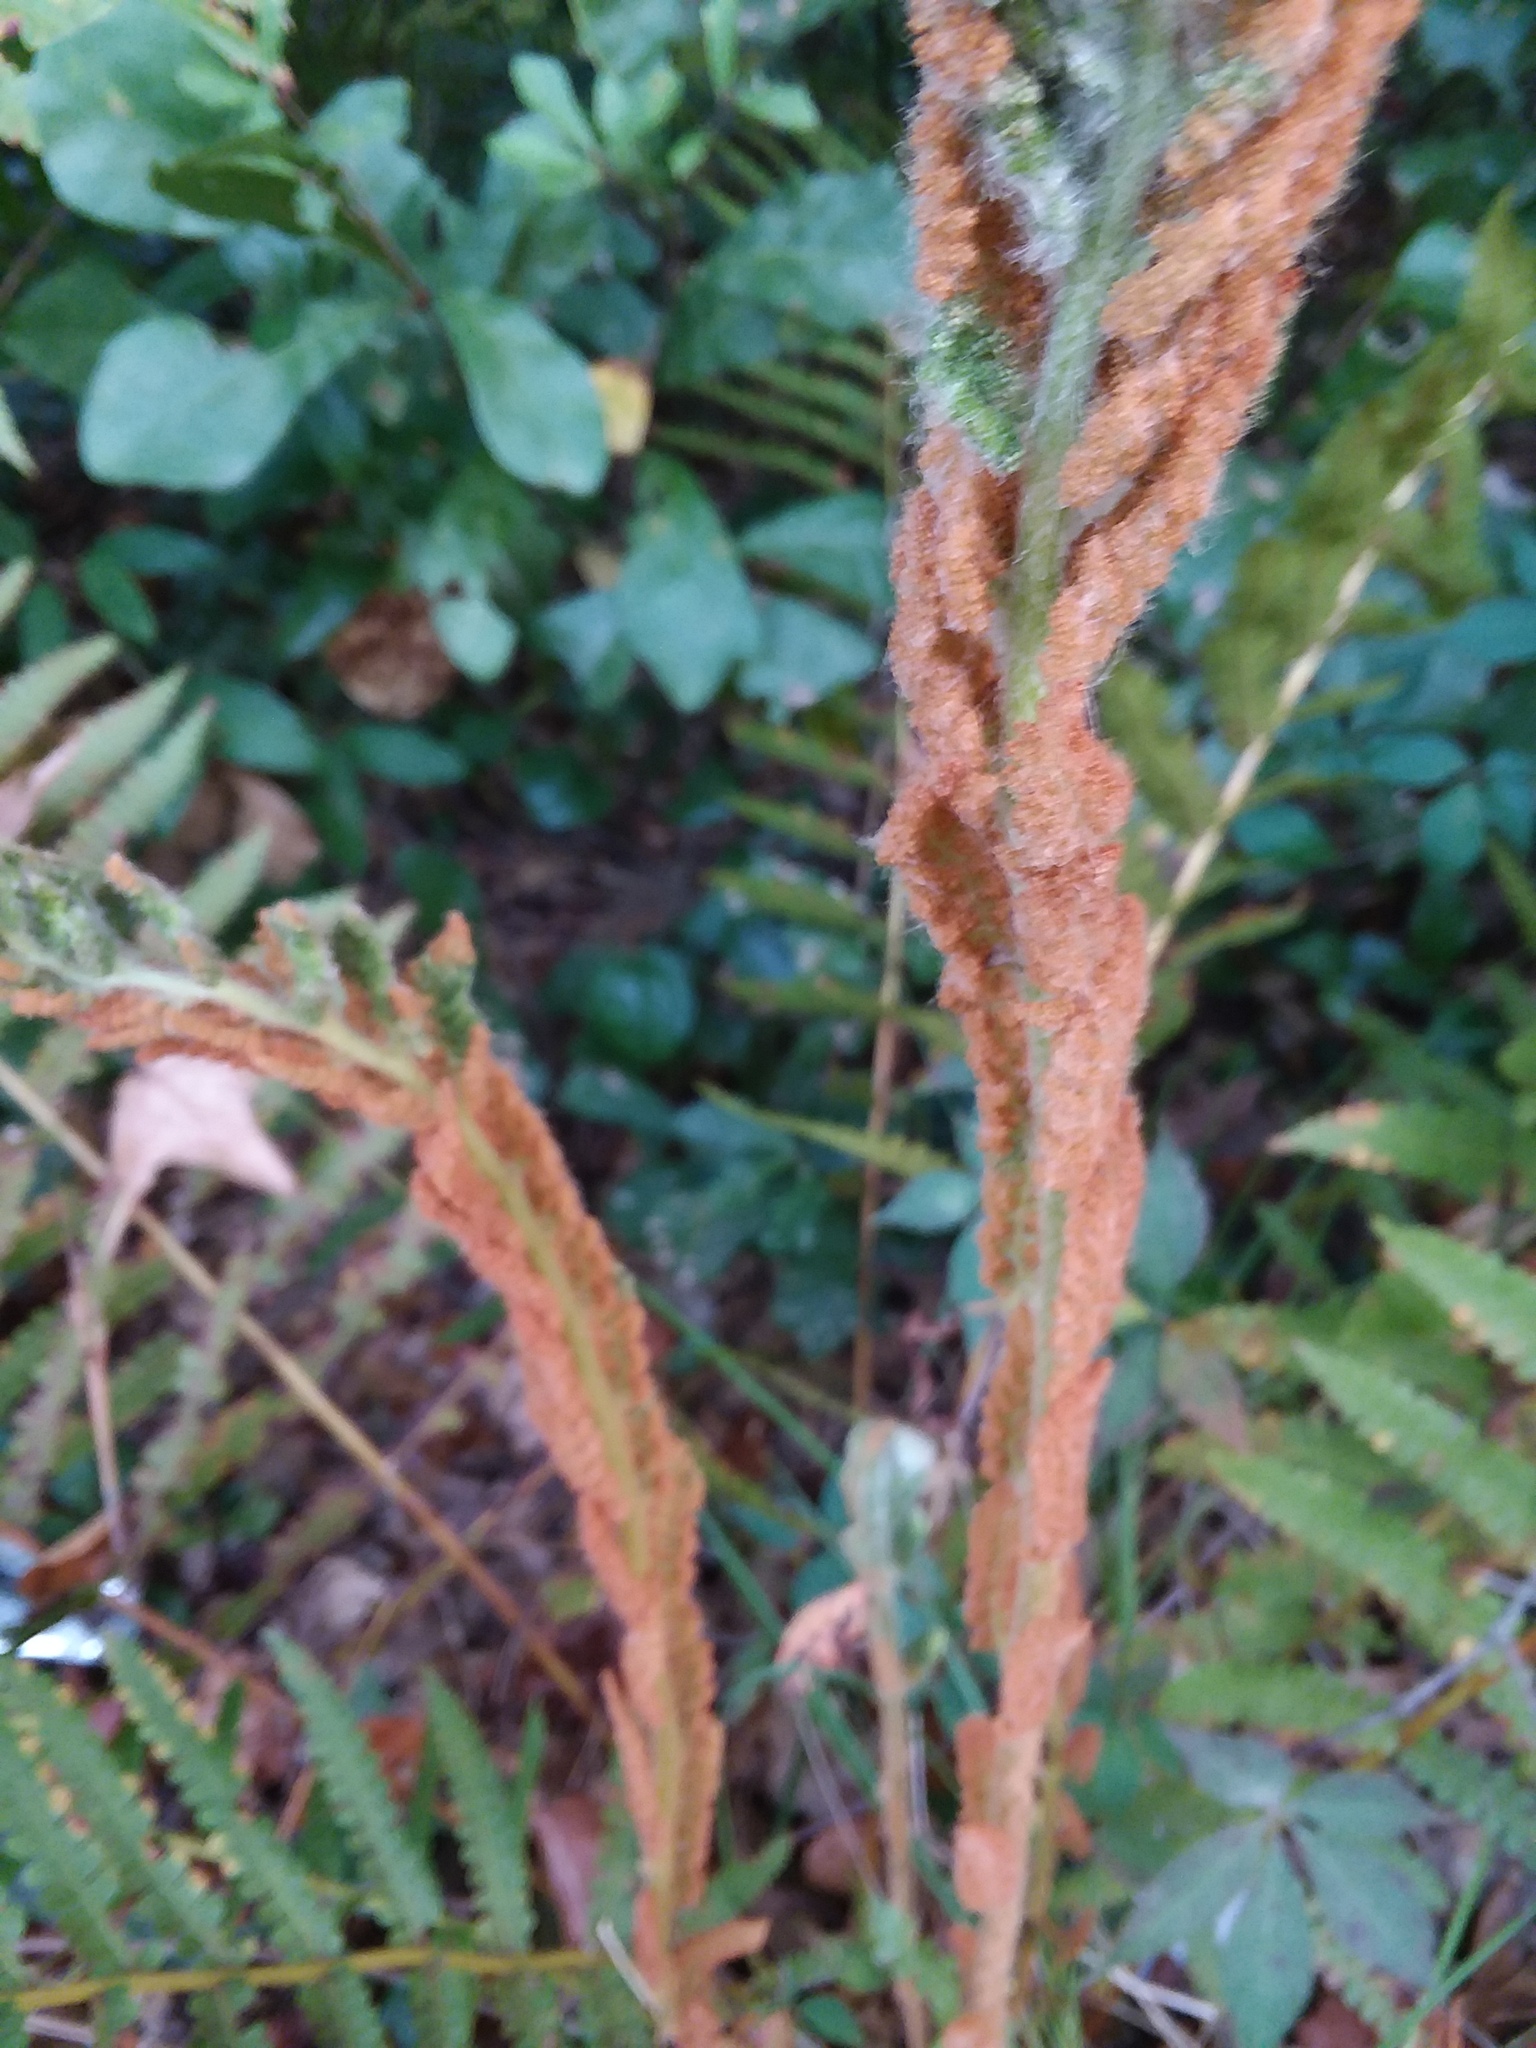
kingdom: Plantae
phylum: Tracheophyta
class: Polypodiopsida
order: Osmundales
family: Osmundaceae
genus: Osmundastrum
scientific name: Osmundastrum cinnamomeum
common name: Cinnamon fern
